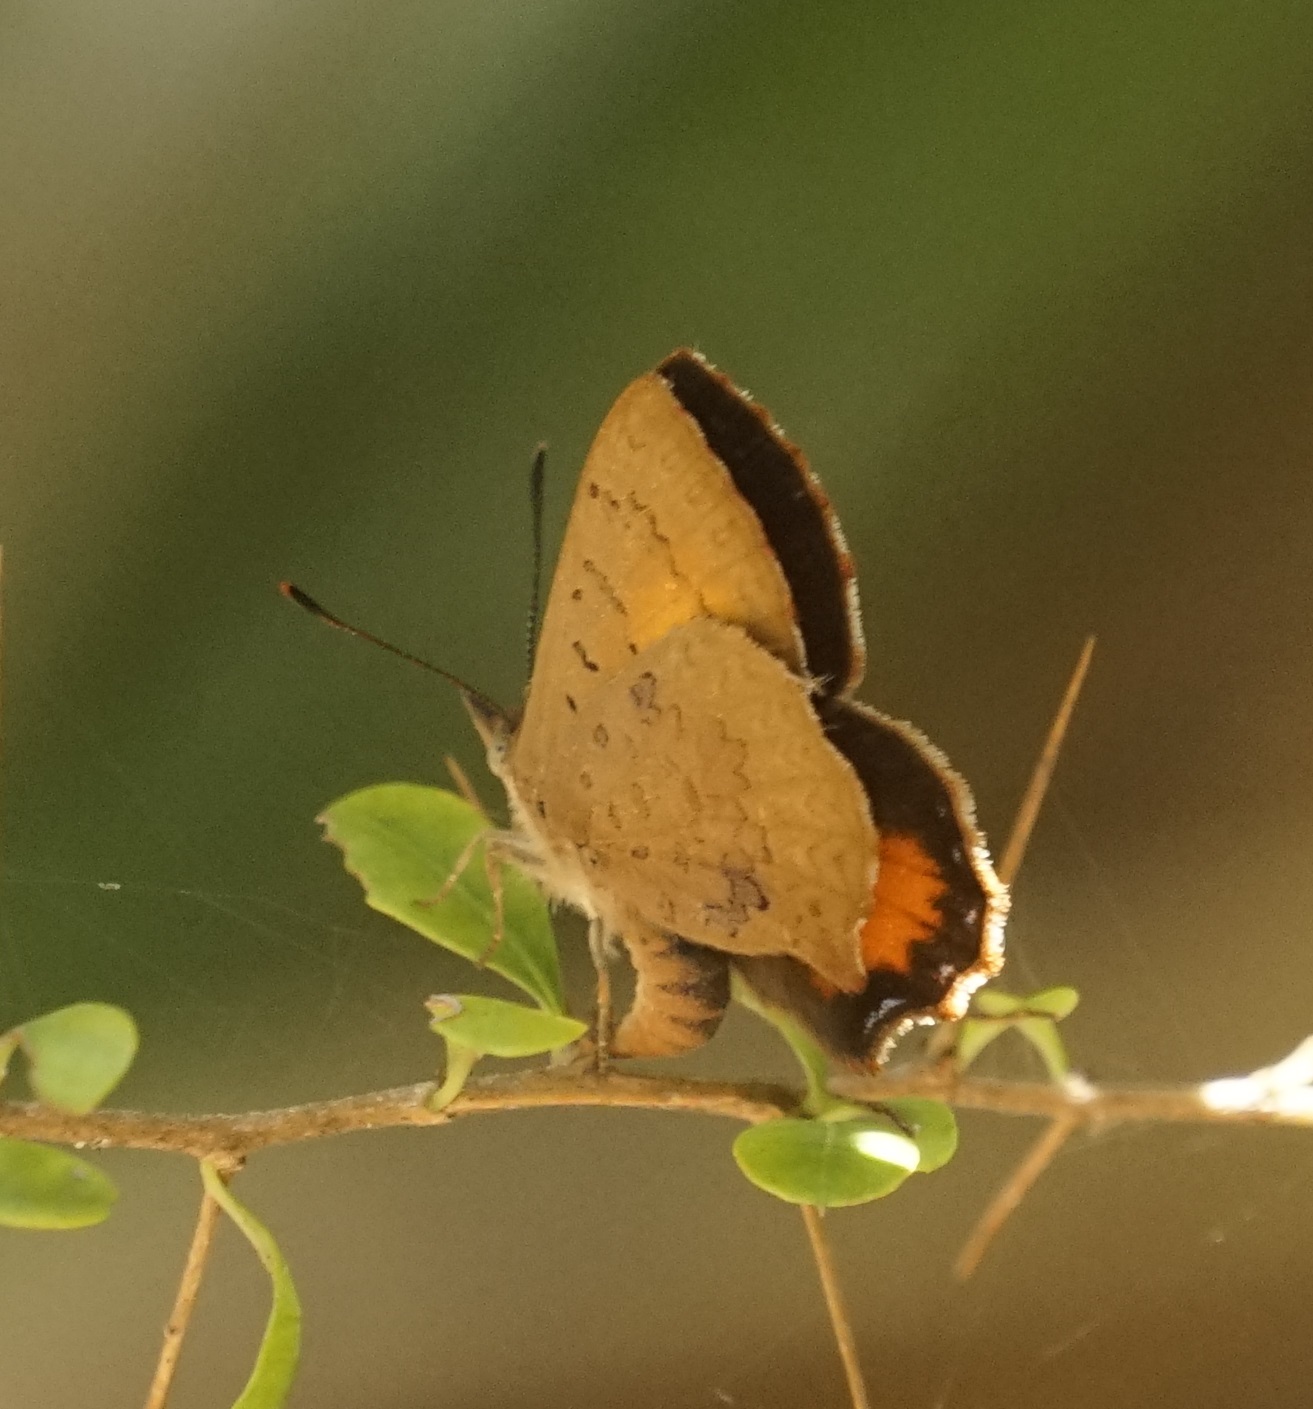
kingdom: Animalia
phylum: Arthropoda
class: Insecta
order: Lepidoptera
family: Lycaenidae
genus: Paralucia
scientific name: Paralucia aurifer
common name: Bright copper
